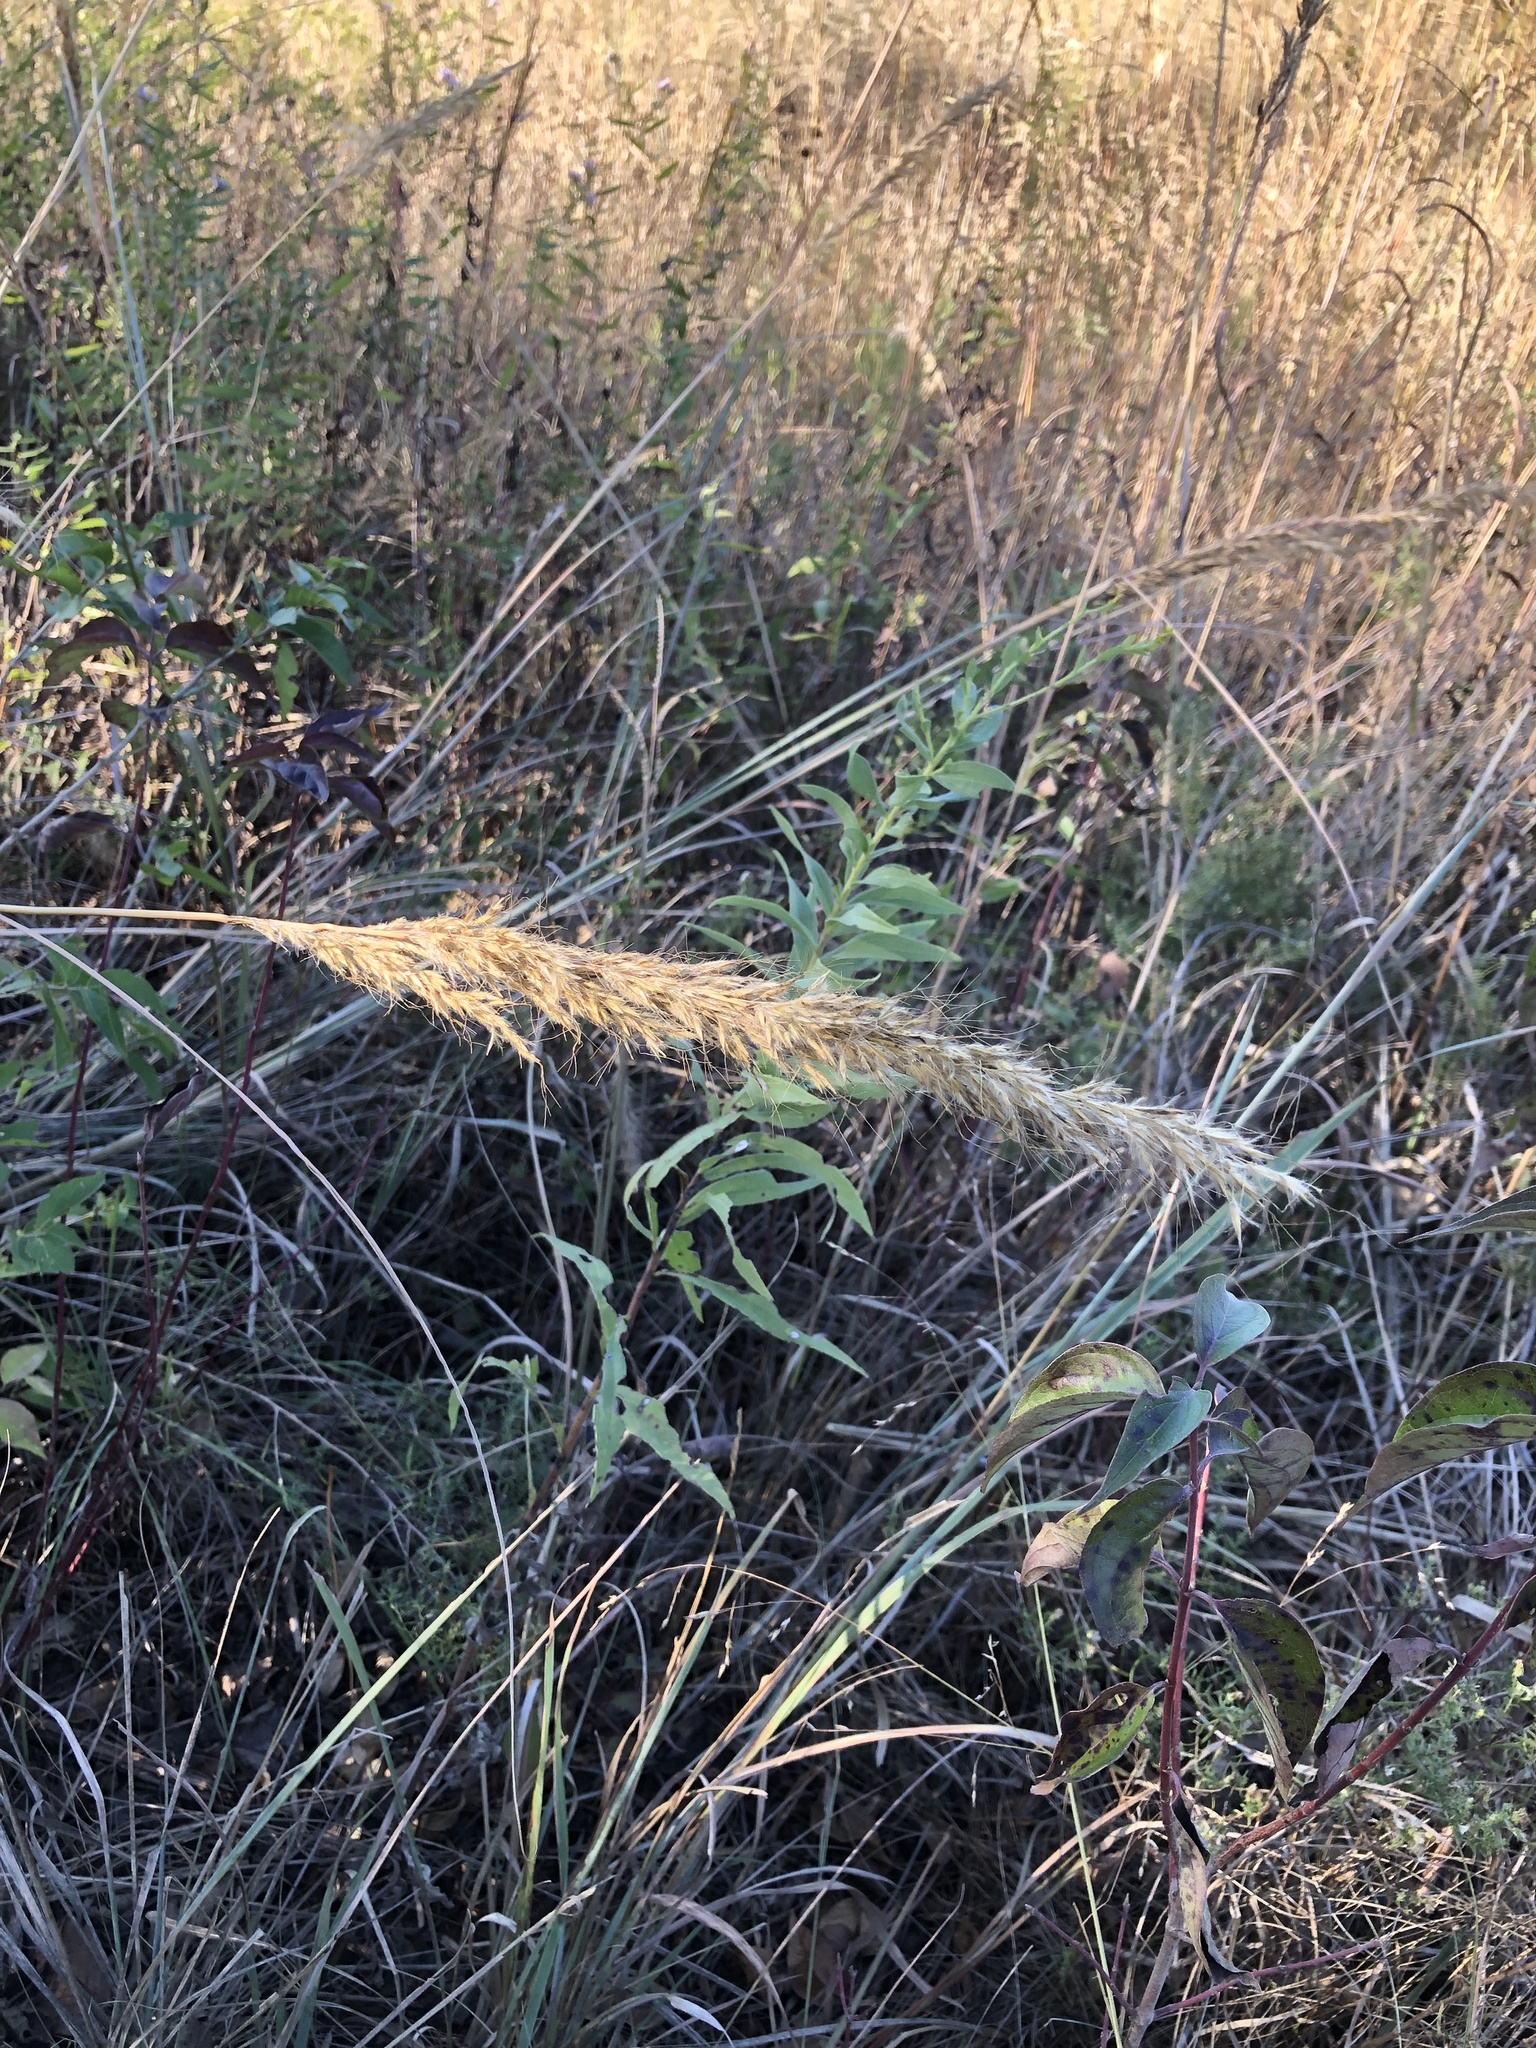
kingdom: Plantae
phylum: Tracheophyta
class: Liliopsida
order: Poales
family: Poaceae
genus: Sorghastrum
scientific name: Sorghastrum nutans
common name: Indian grass
